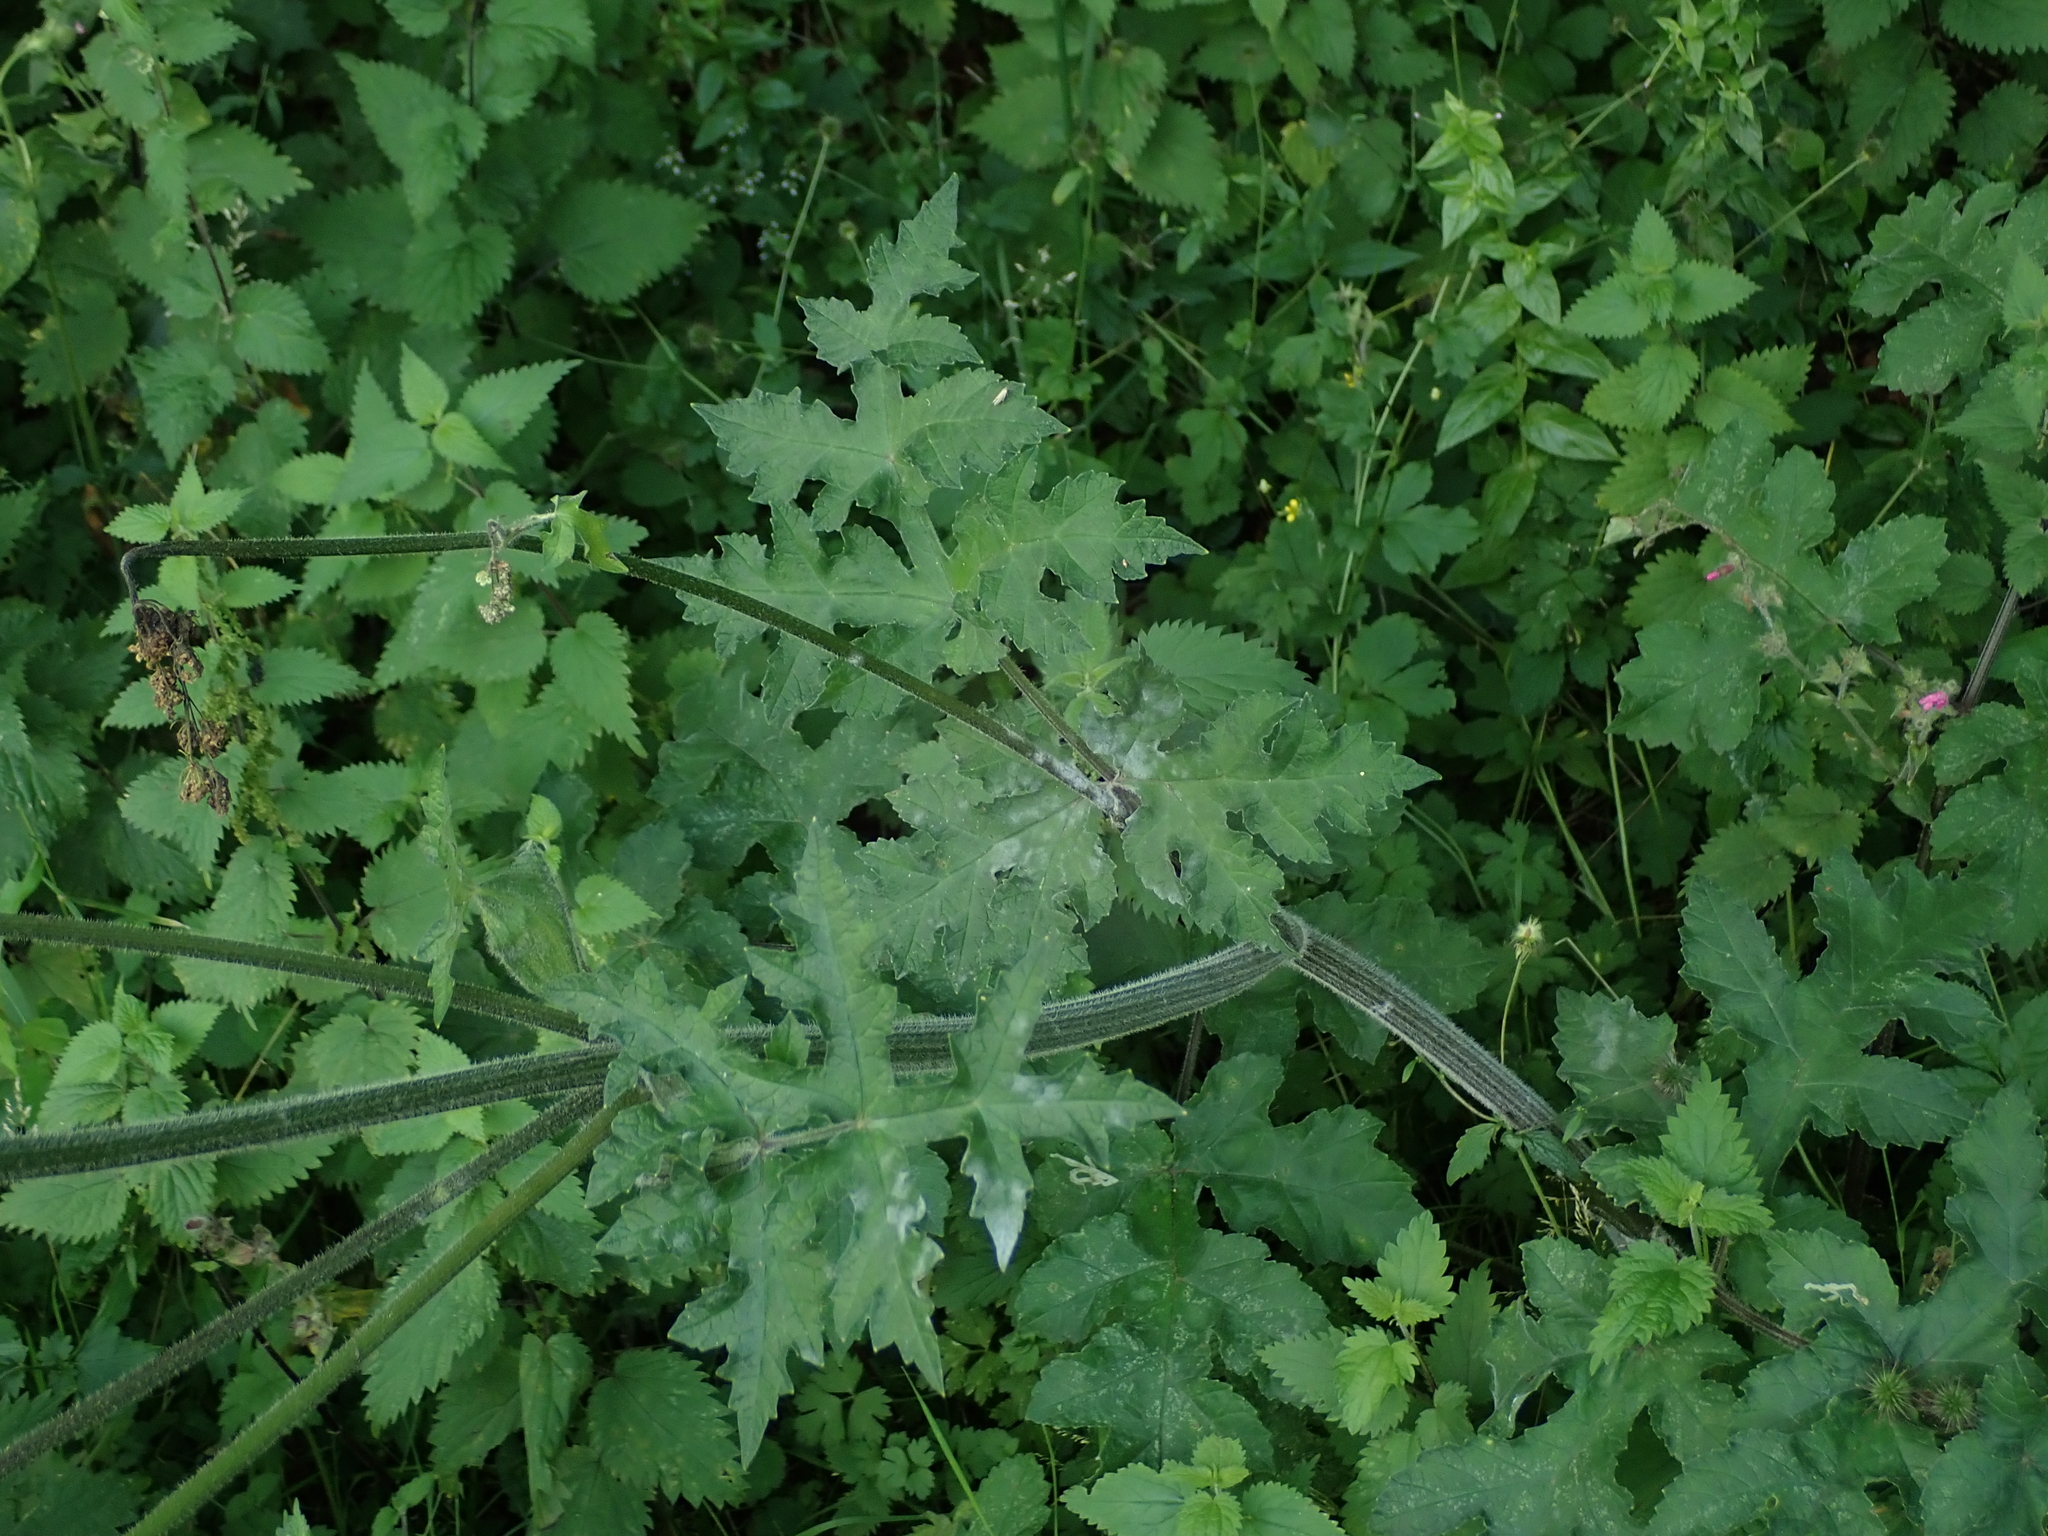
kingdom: Plantae
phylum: Tracheophyta
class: Magnoliopsida
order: Apiales
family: Apiaceae
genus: Heracleum
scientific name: Heracleum sphondylium
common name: Hogweed
